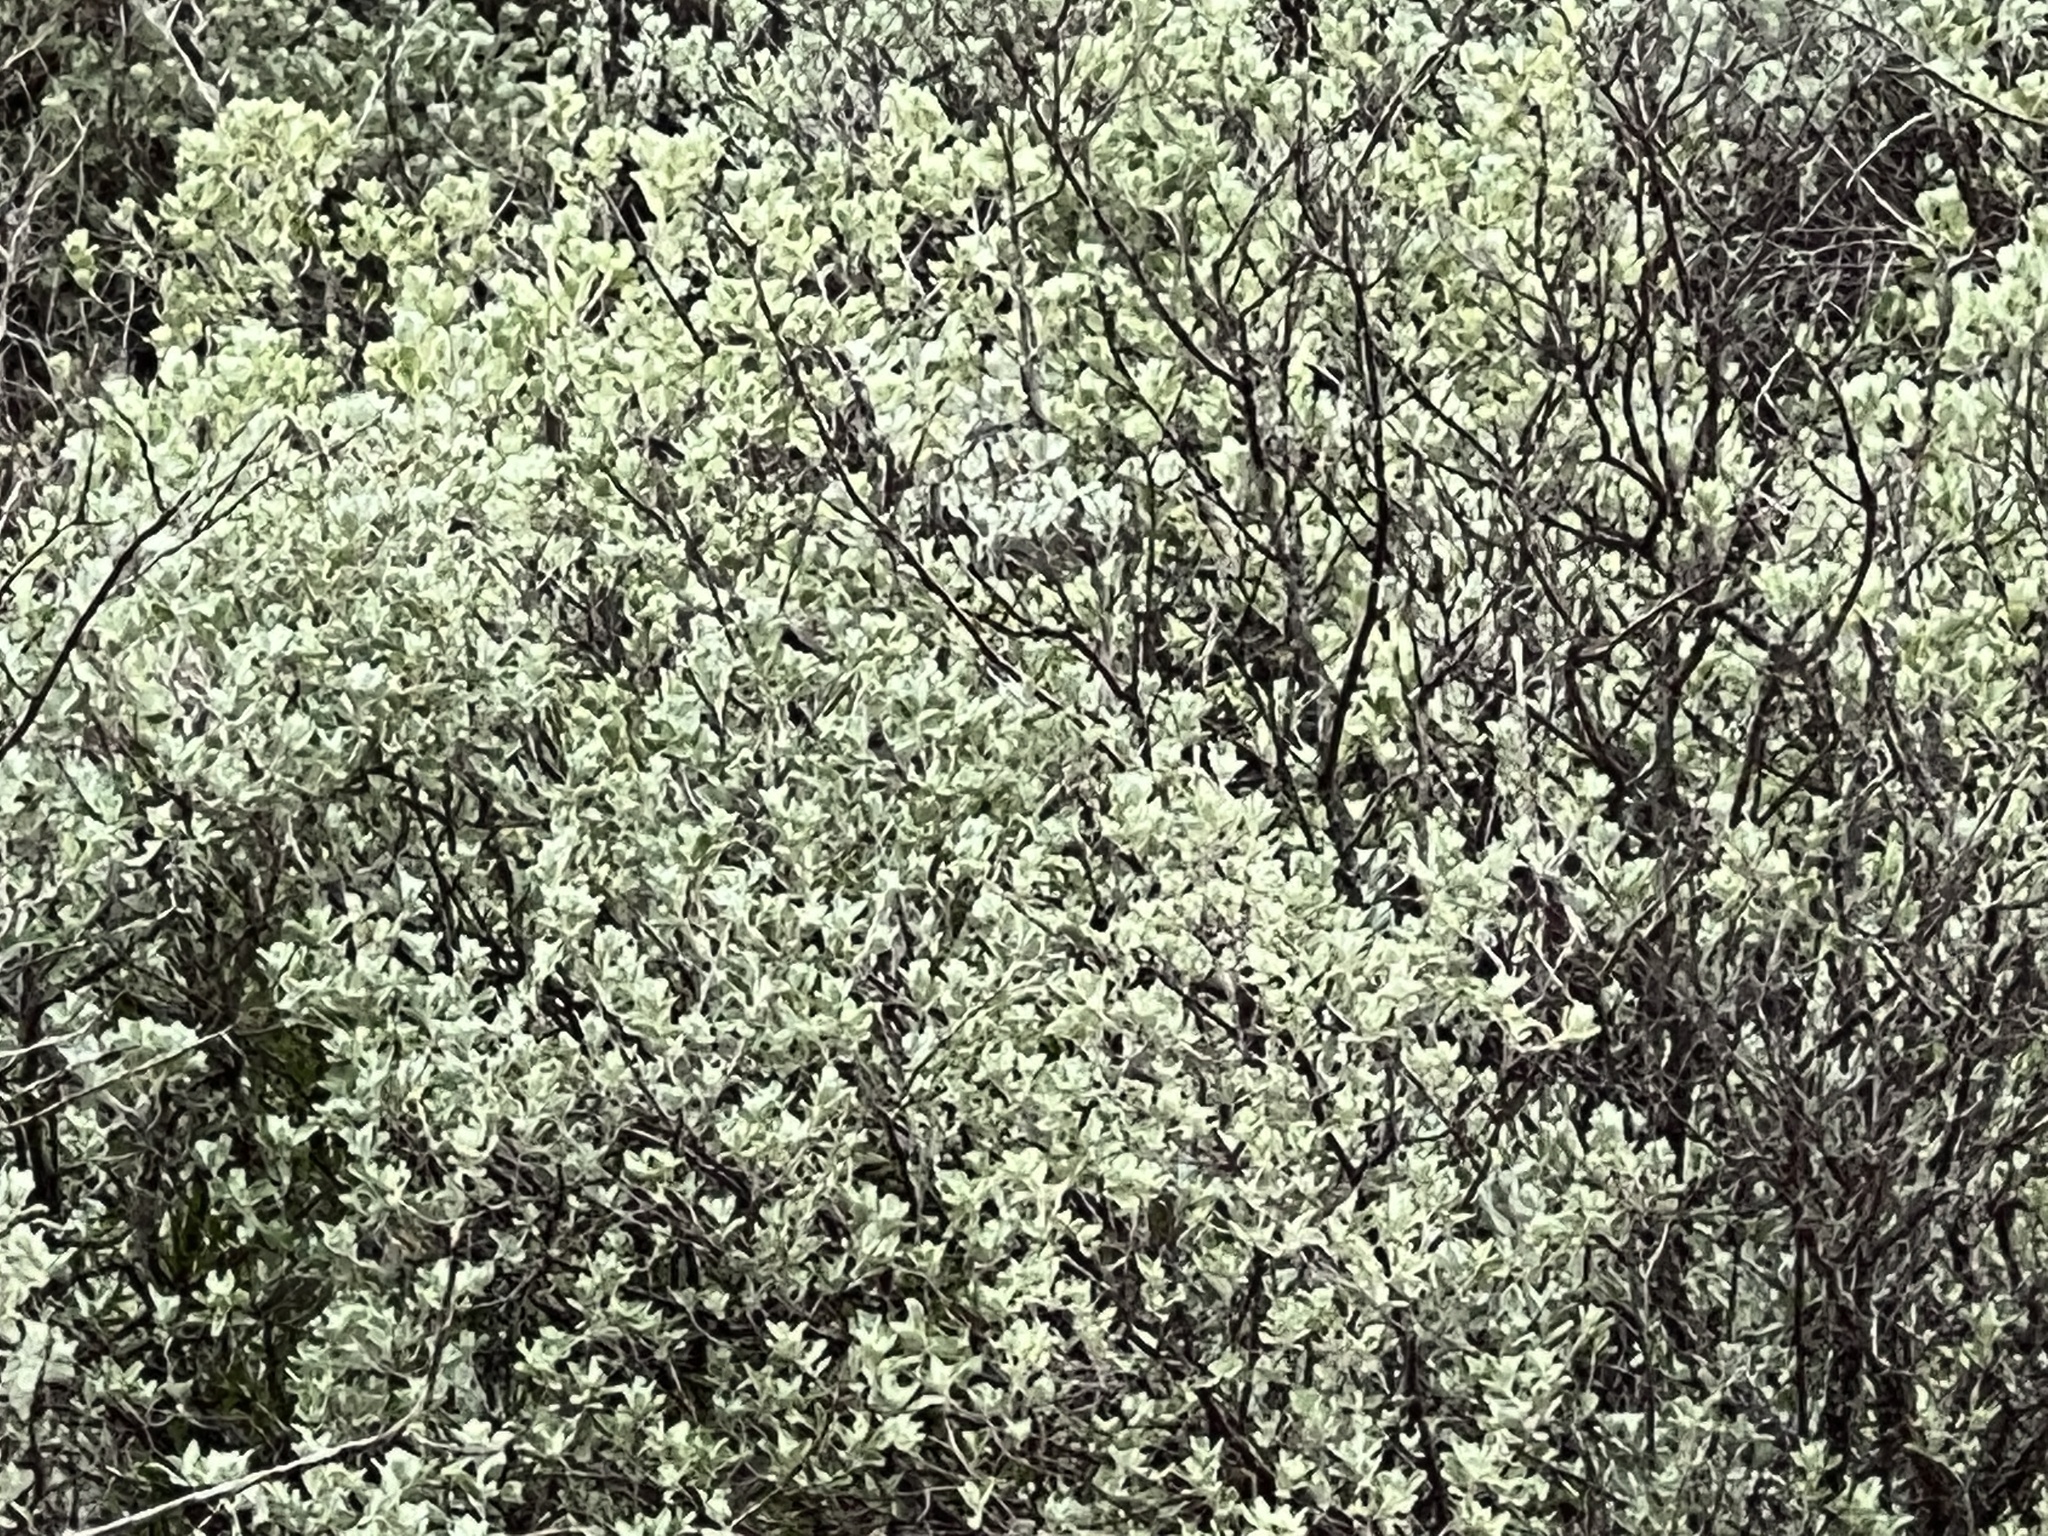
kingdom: Plantae
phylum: Tracheophyta
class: Magnoliopsida
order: Lamiales
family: Scrophulariaceae
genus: Leucophyllum
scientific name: Leucophyllum frutescens
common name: Texas silverleaf
